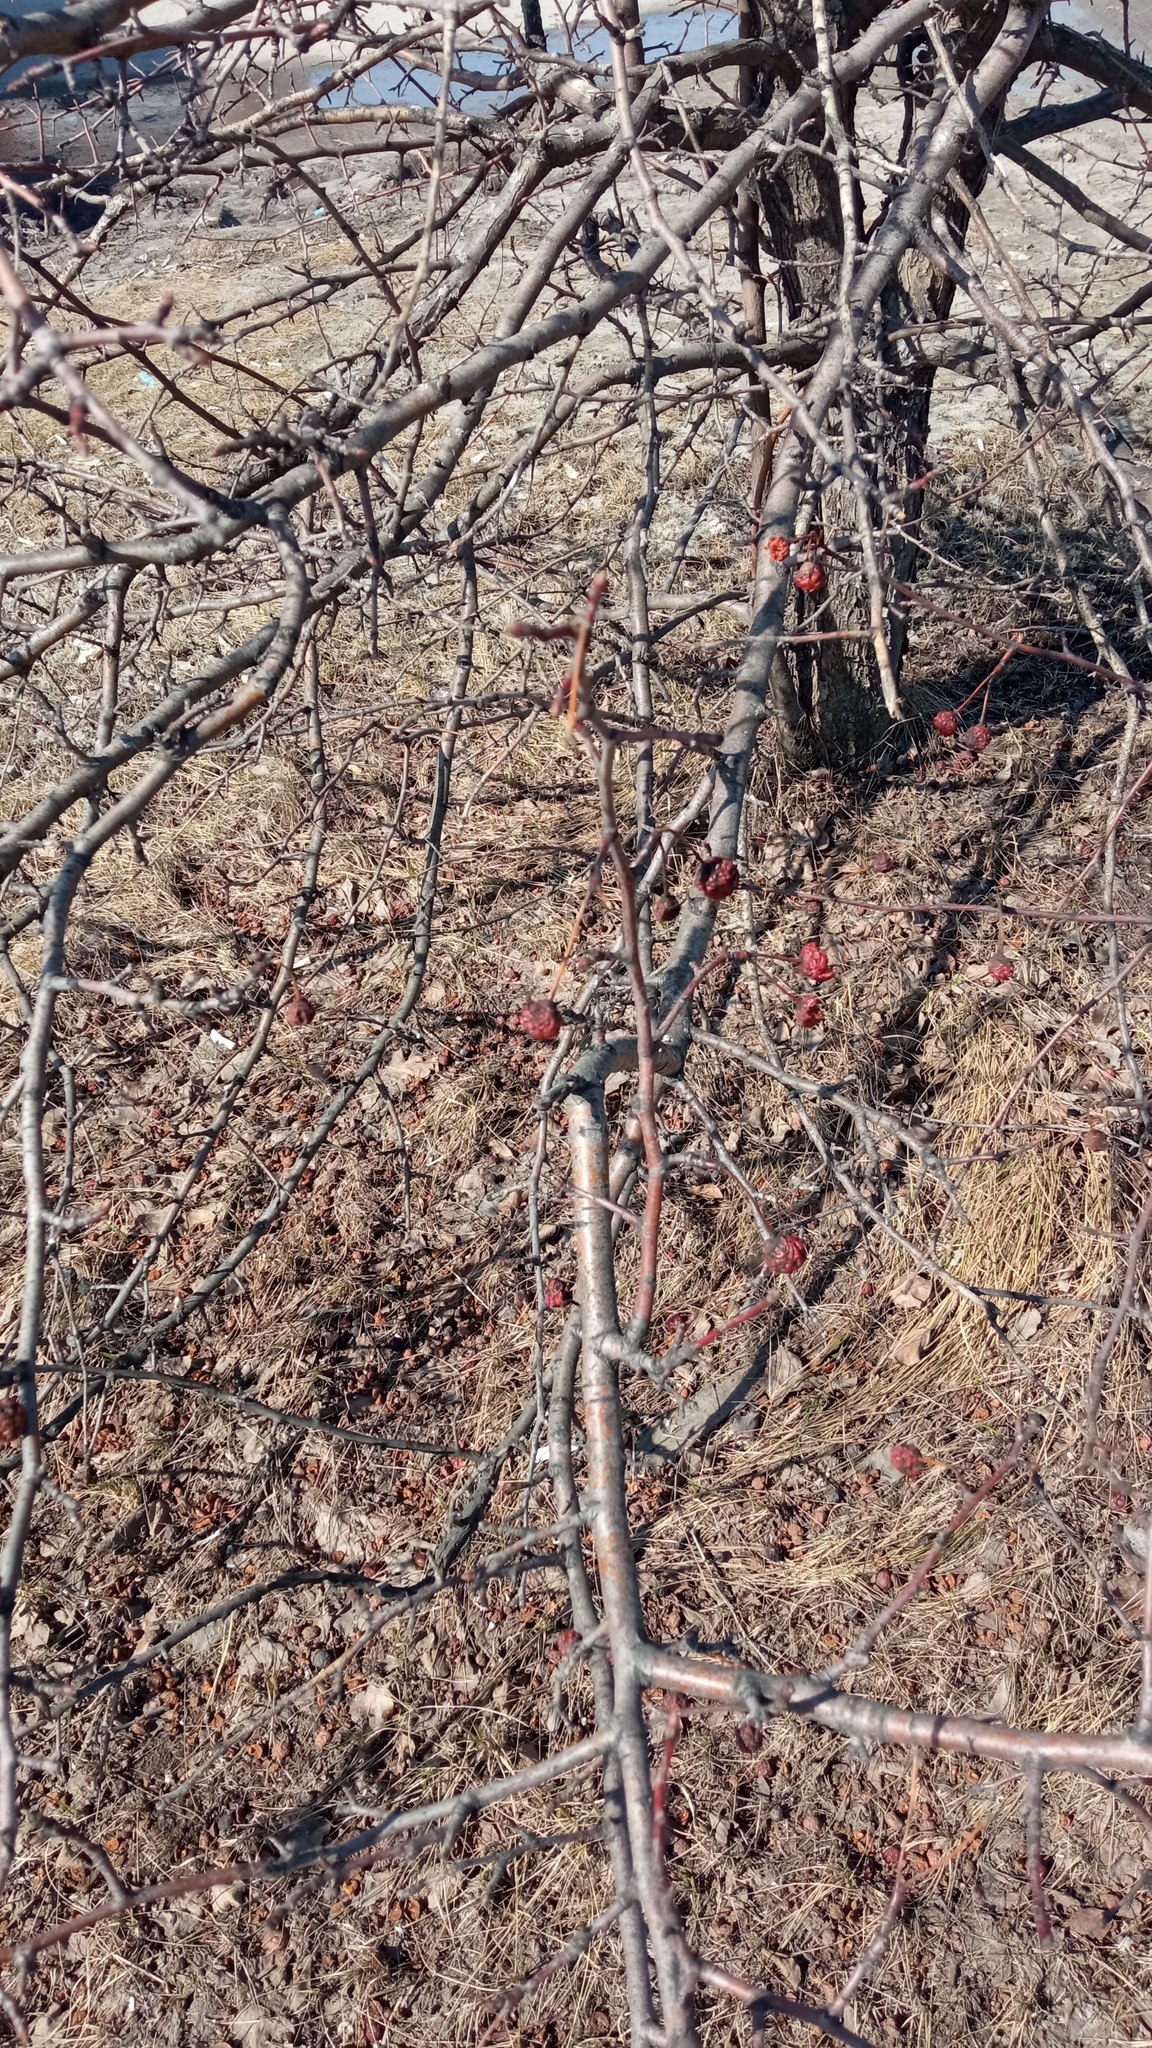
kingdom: Plantae
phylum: Tracheophyta
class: Magnoliopsida
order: Rosales
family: Rosaceae
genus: Malus
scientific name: Malus baccata
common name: Siberian crab
